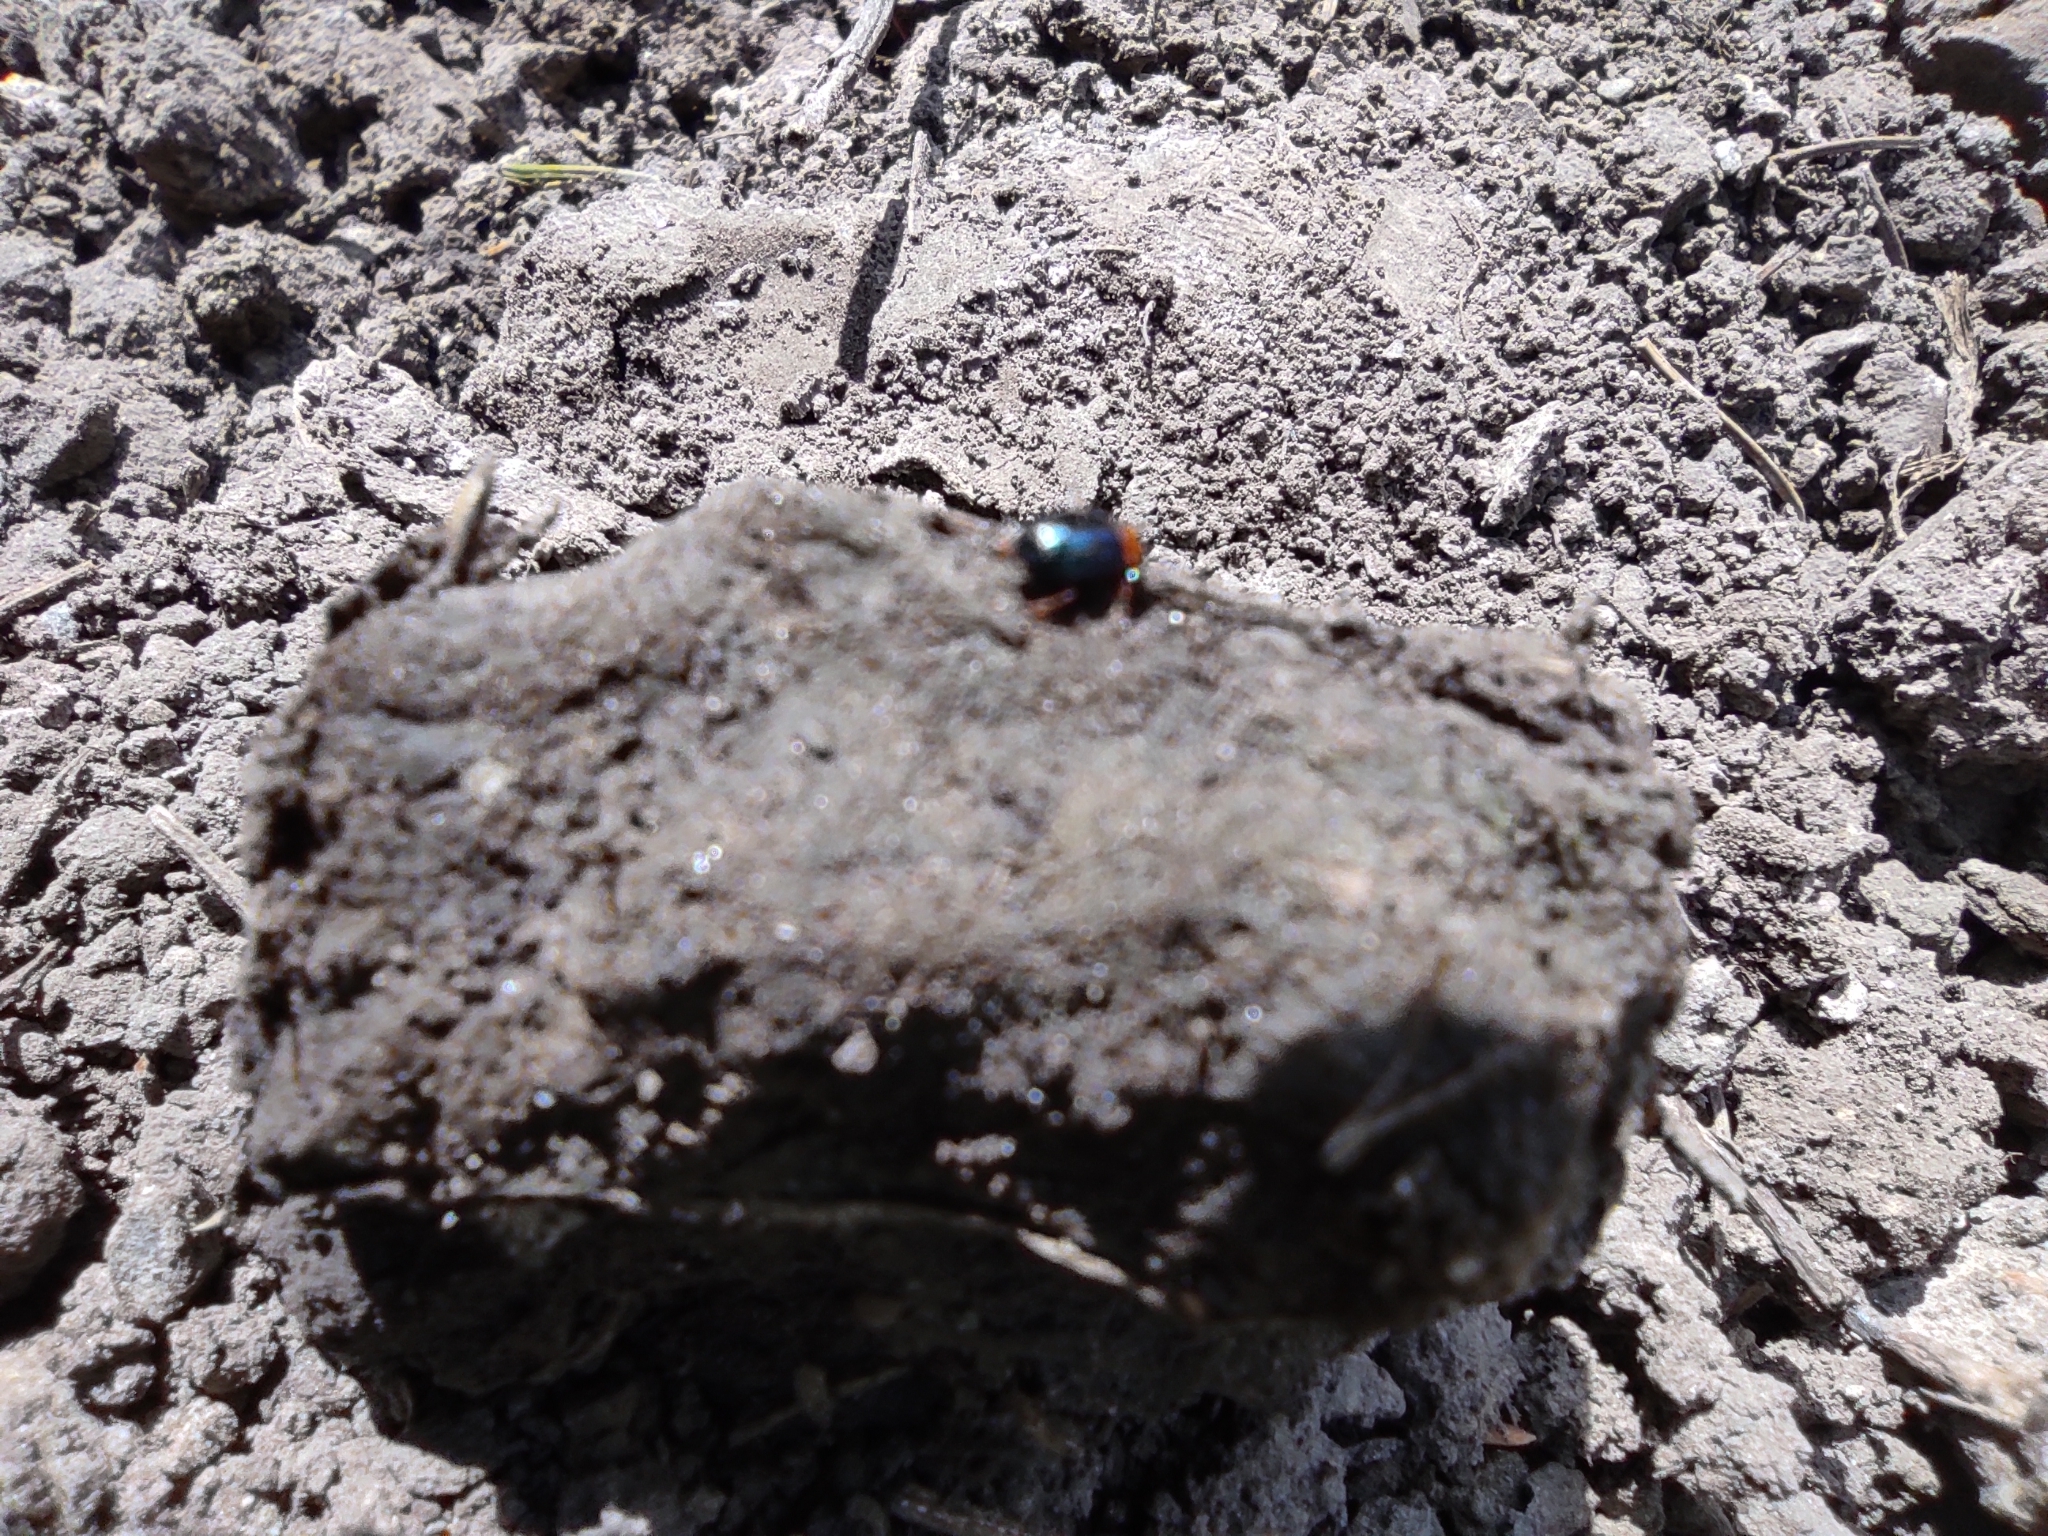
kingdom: Animalia
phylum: Arthropoda
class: Insecta
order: Coleoptera
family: Chrysomelidae
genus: Gastrophysa
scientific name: Gastrophysa polygoni
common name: Knotweed leaf beetle
